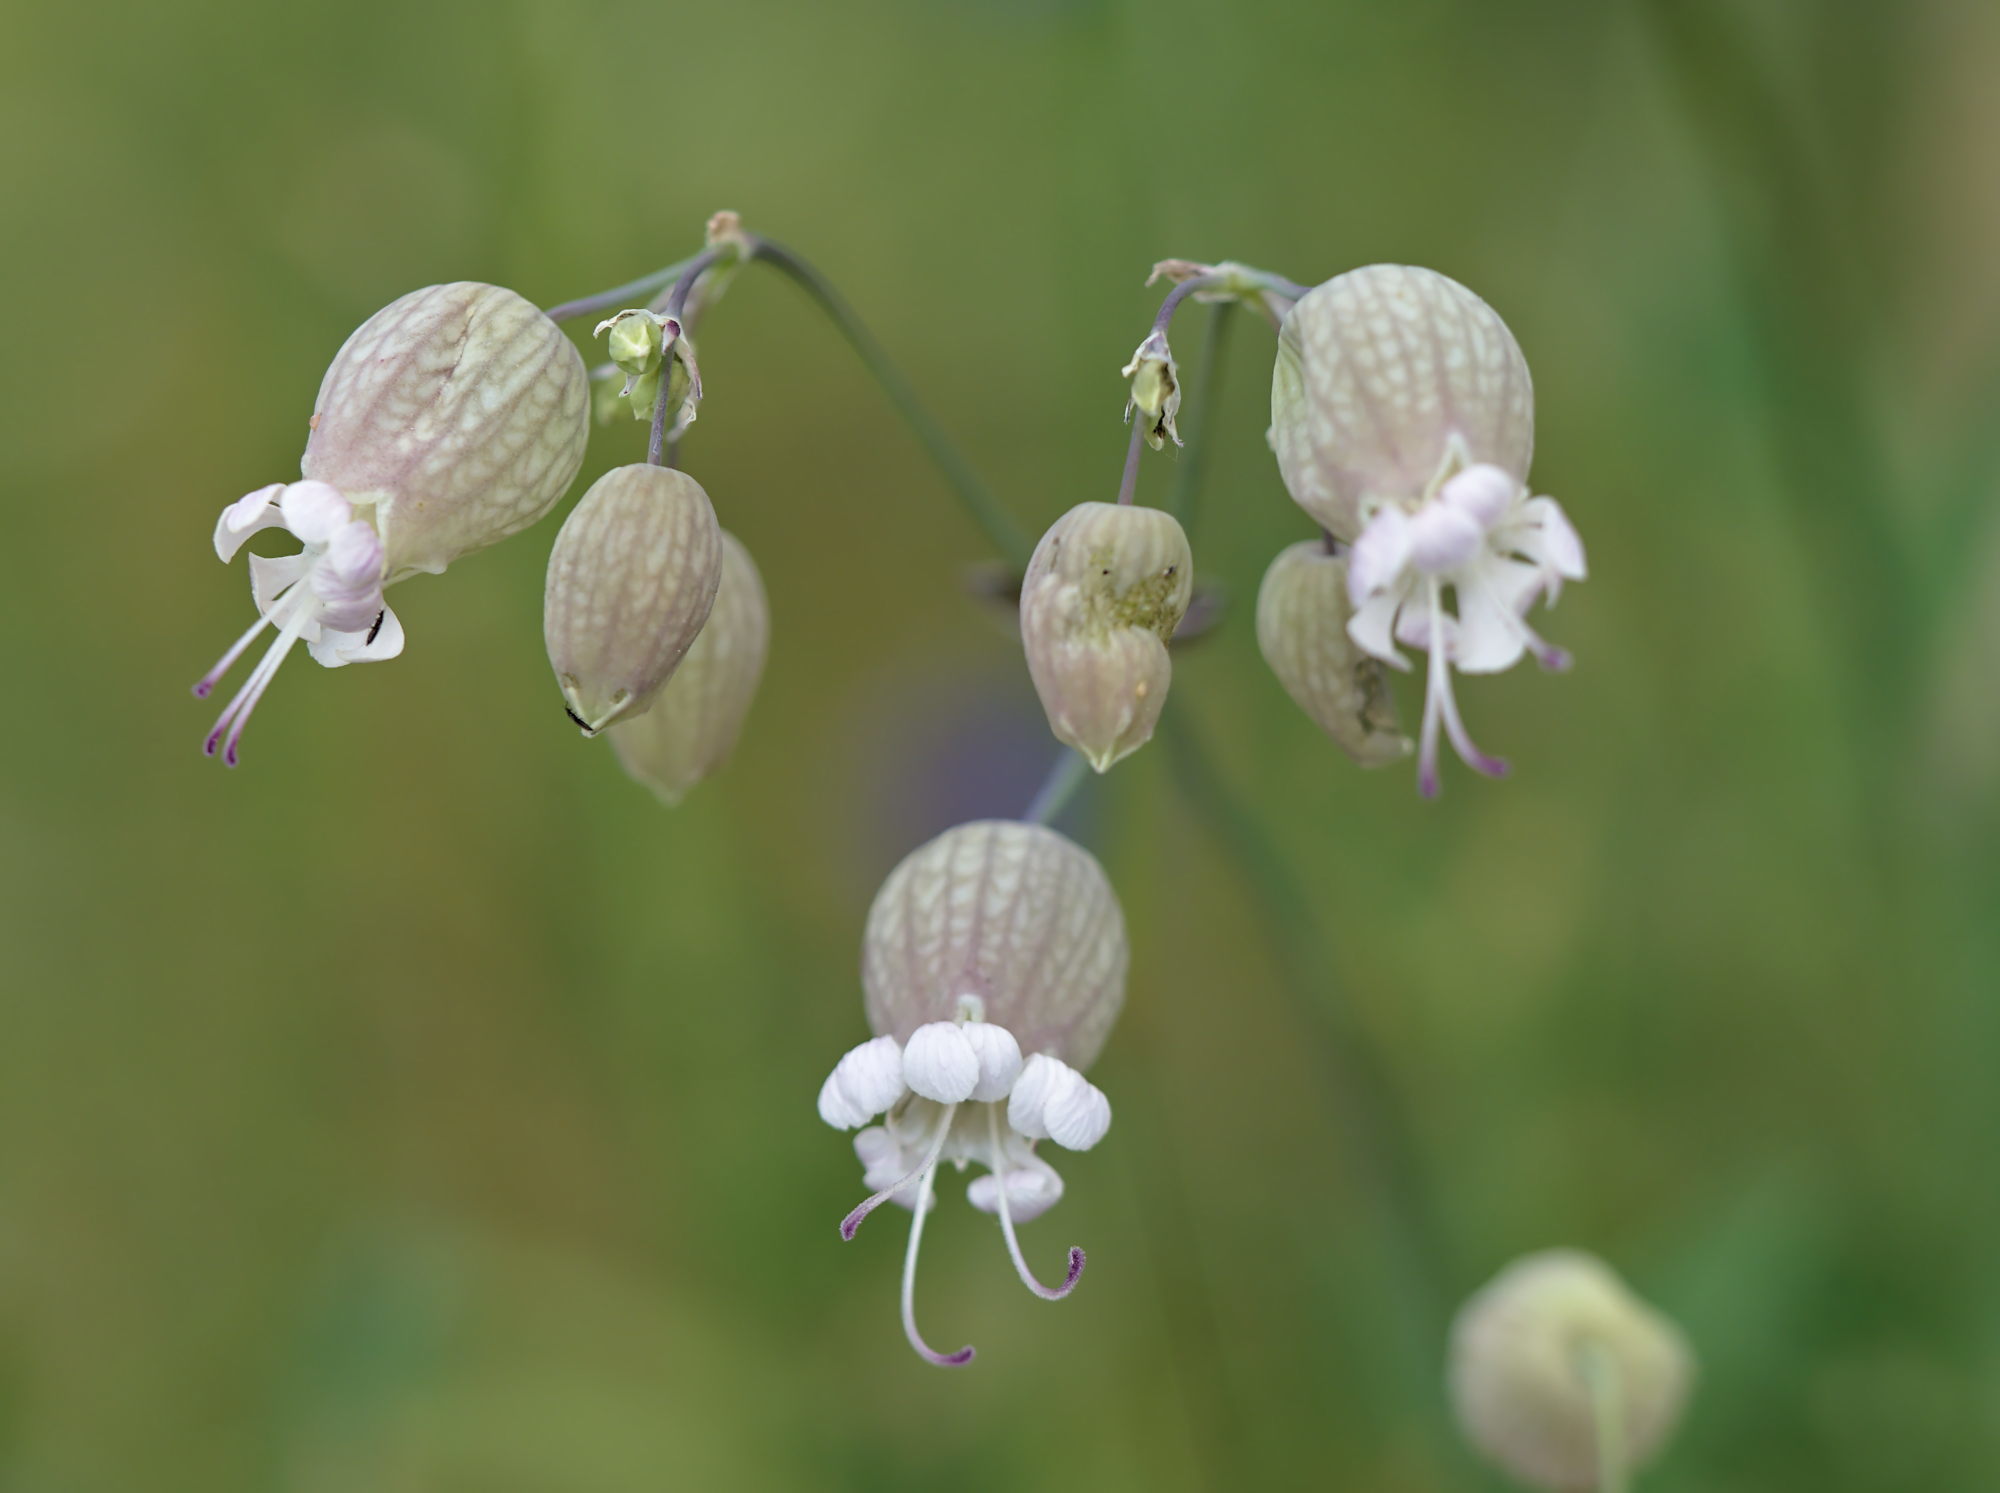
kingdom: Plantae
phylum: Tracheophyta
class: Magnoliopsida
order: Caryophyllales
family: Caryophyllaceae
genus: Silene
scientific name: Silene vulgaris
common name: Bladder campion
